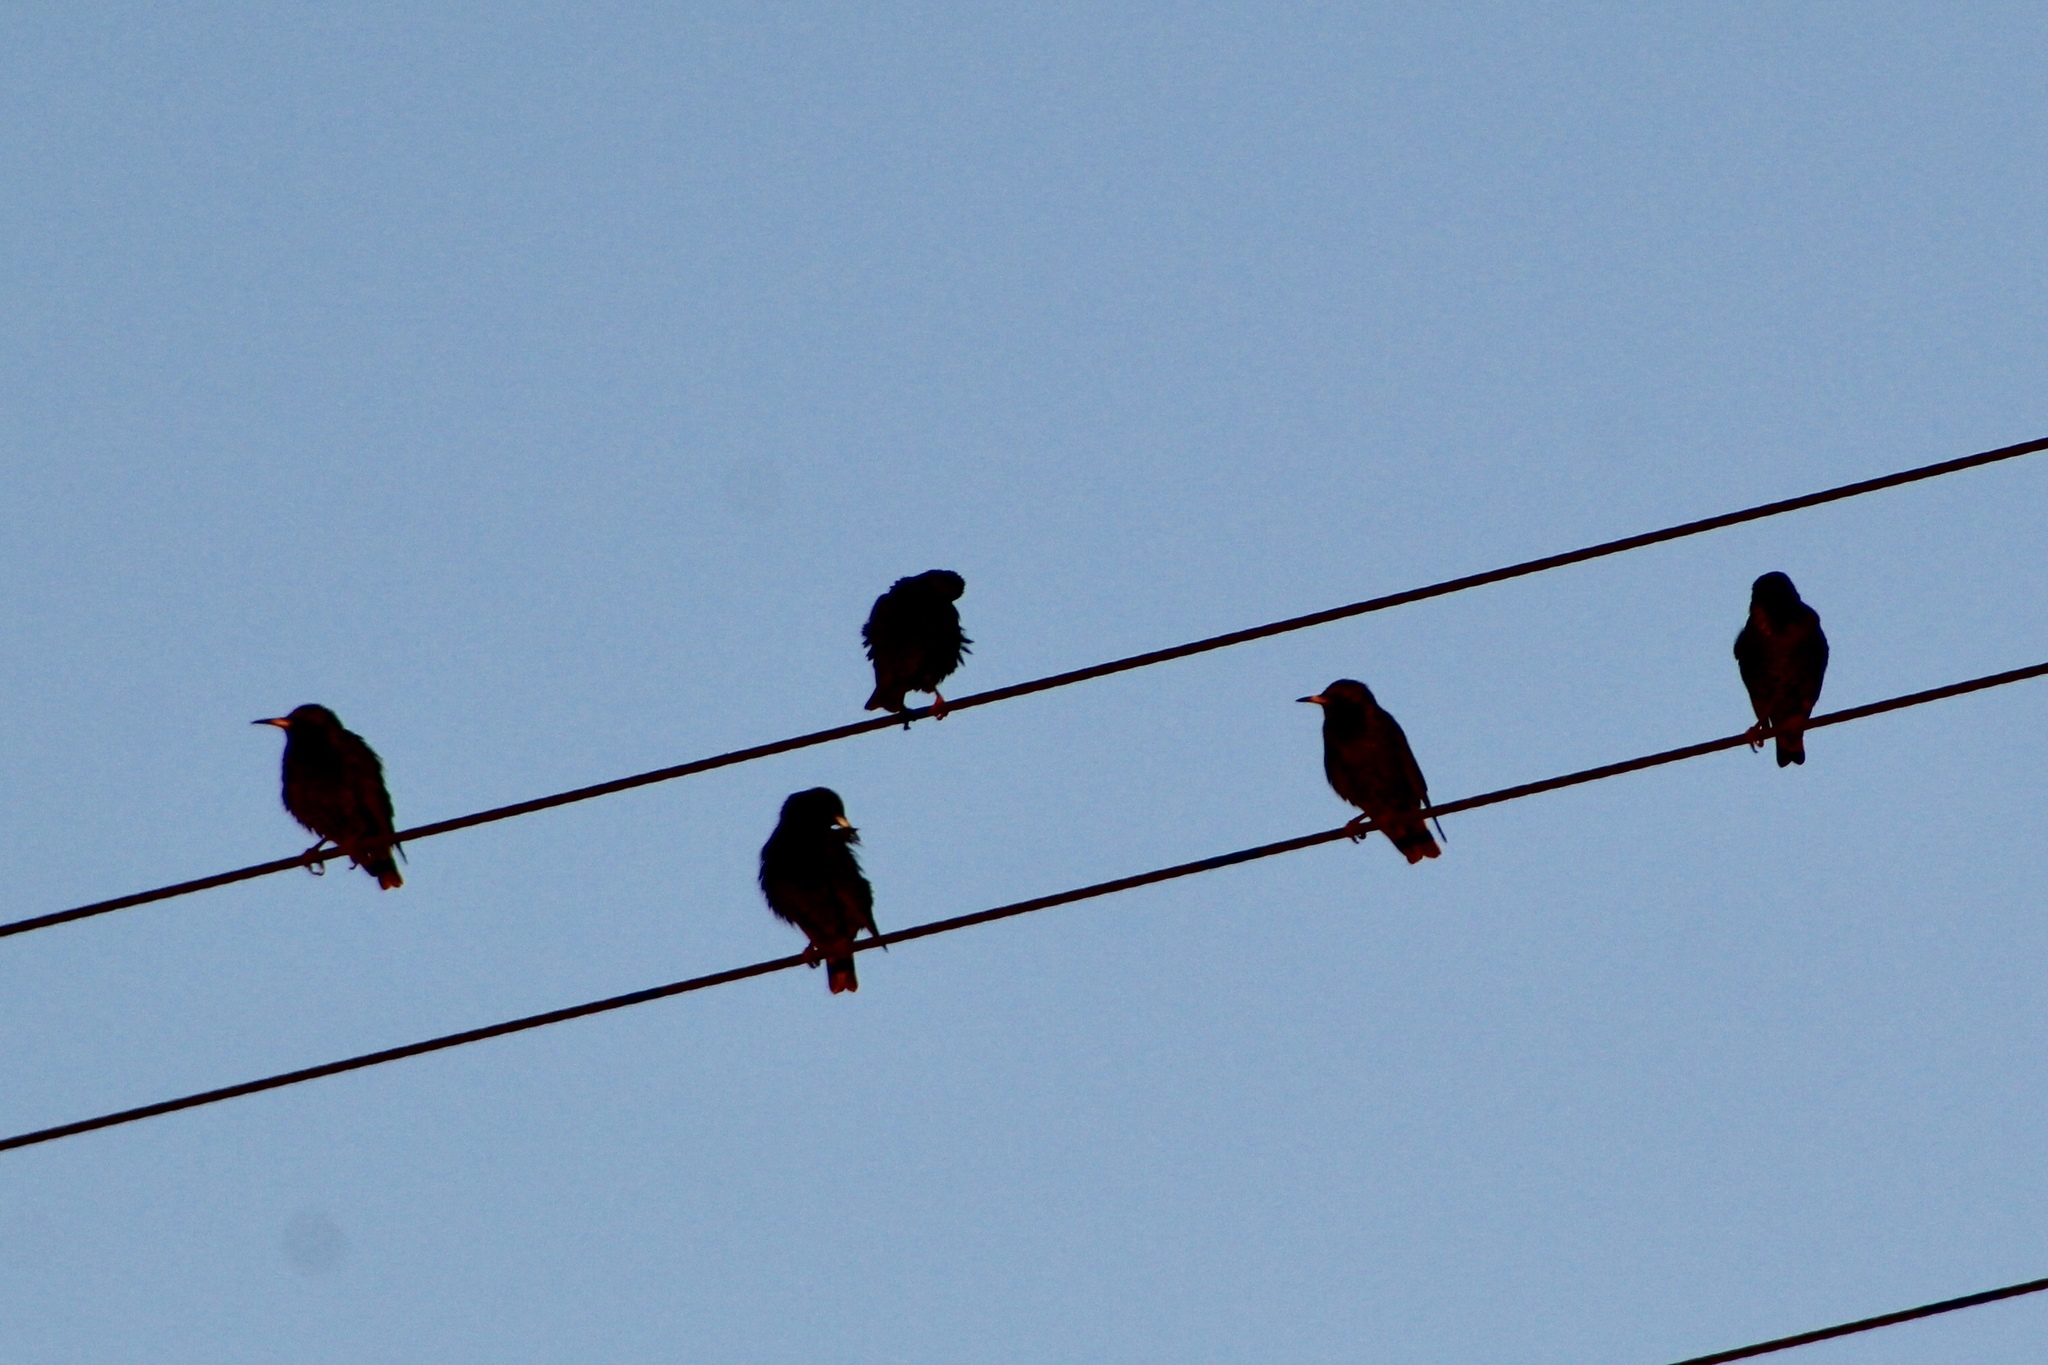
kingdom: Animalia
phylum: Chordata
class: Aves
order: Passeriformes
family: Sturnidae
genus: Sturnus
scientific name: Sturnus vulgaris
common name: Common starling
